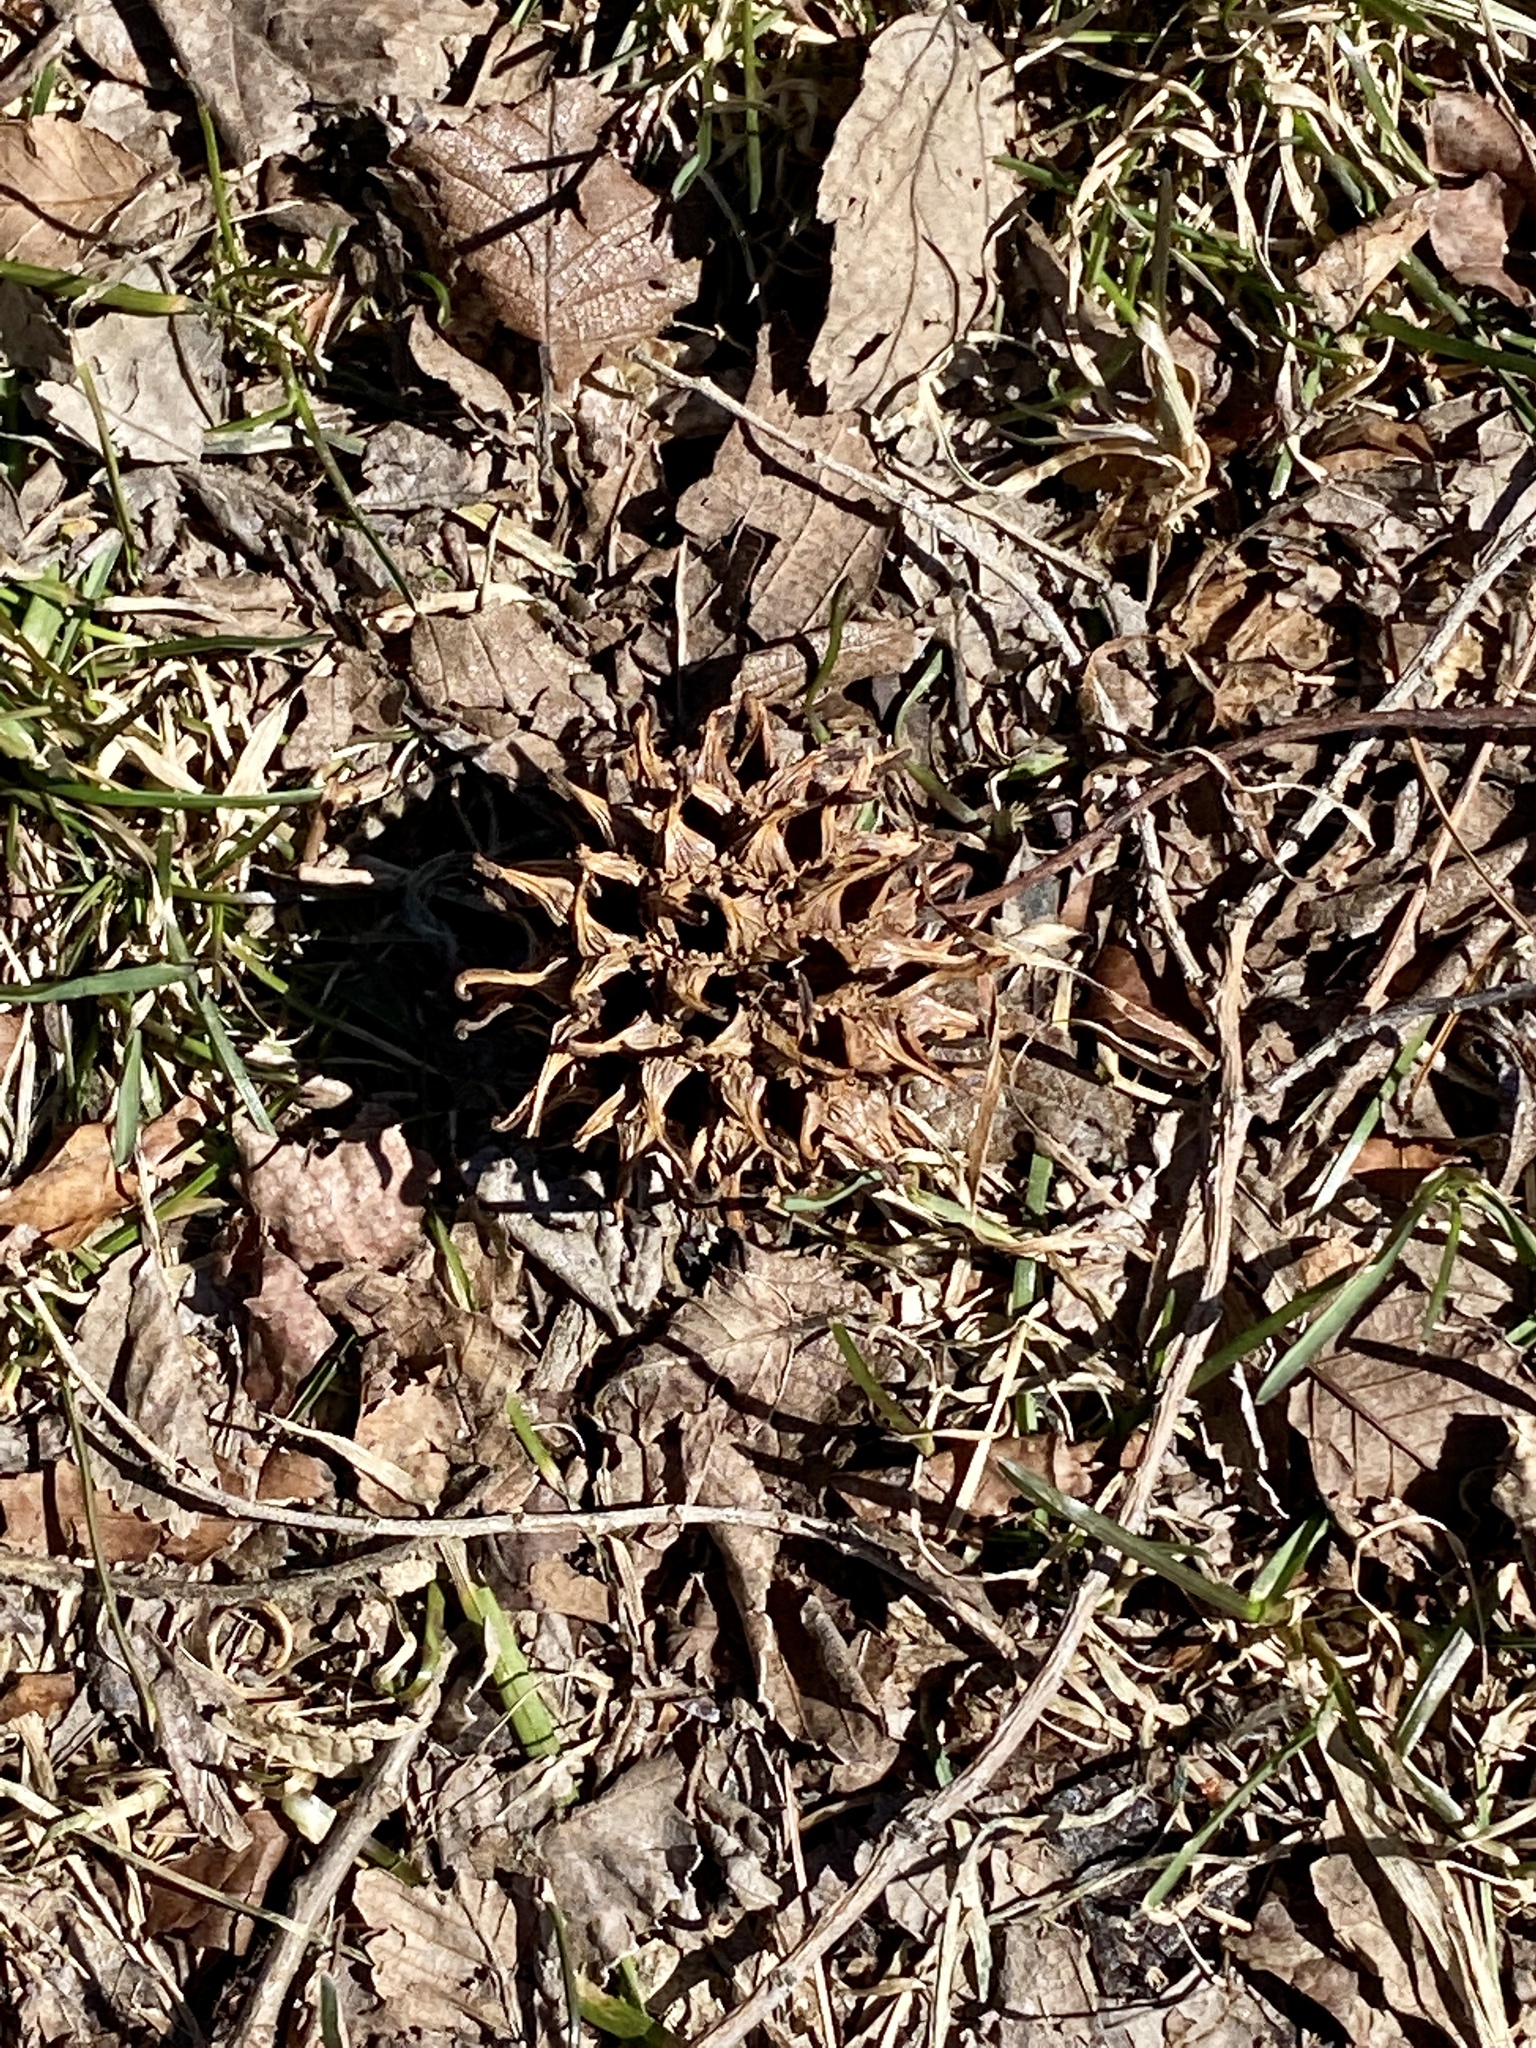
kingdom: Plantae
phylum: Tracheophyta
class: Magnoliopsida
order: Saxifragales
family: Altingiaceae
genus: Liquidambar
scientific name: Liquidambar styraciflua
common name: Sweet gum
